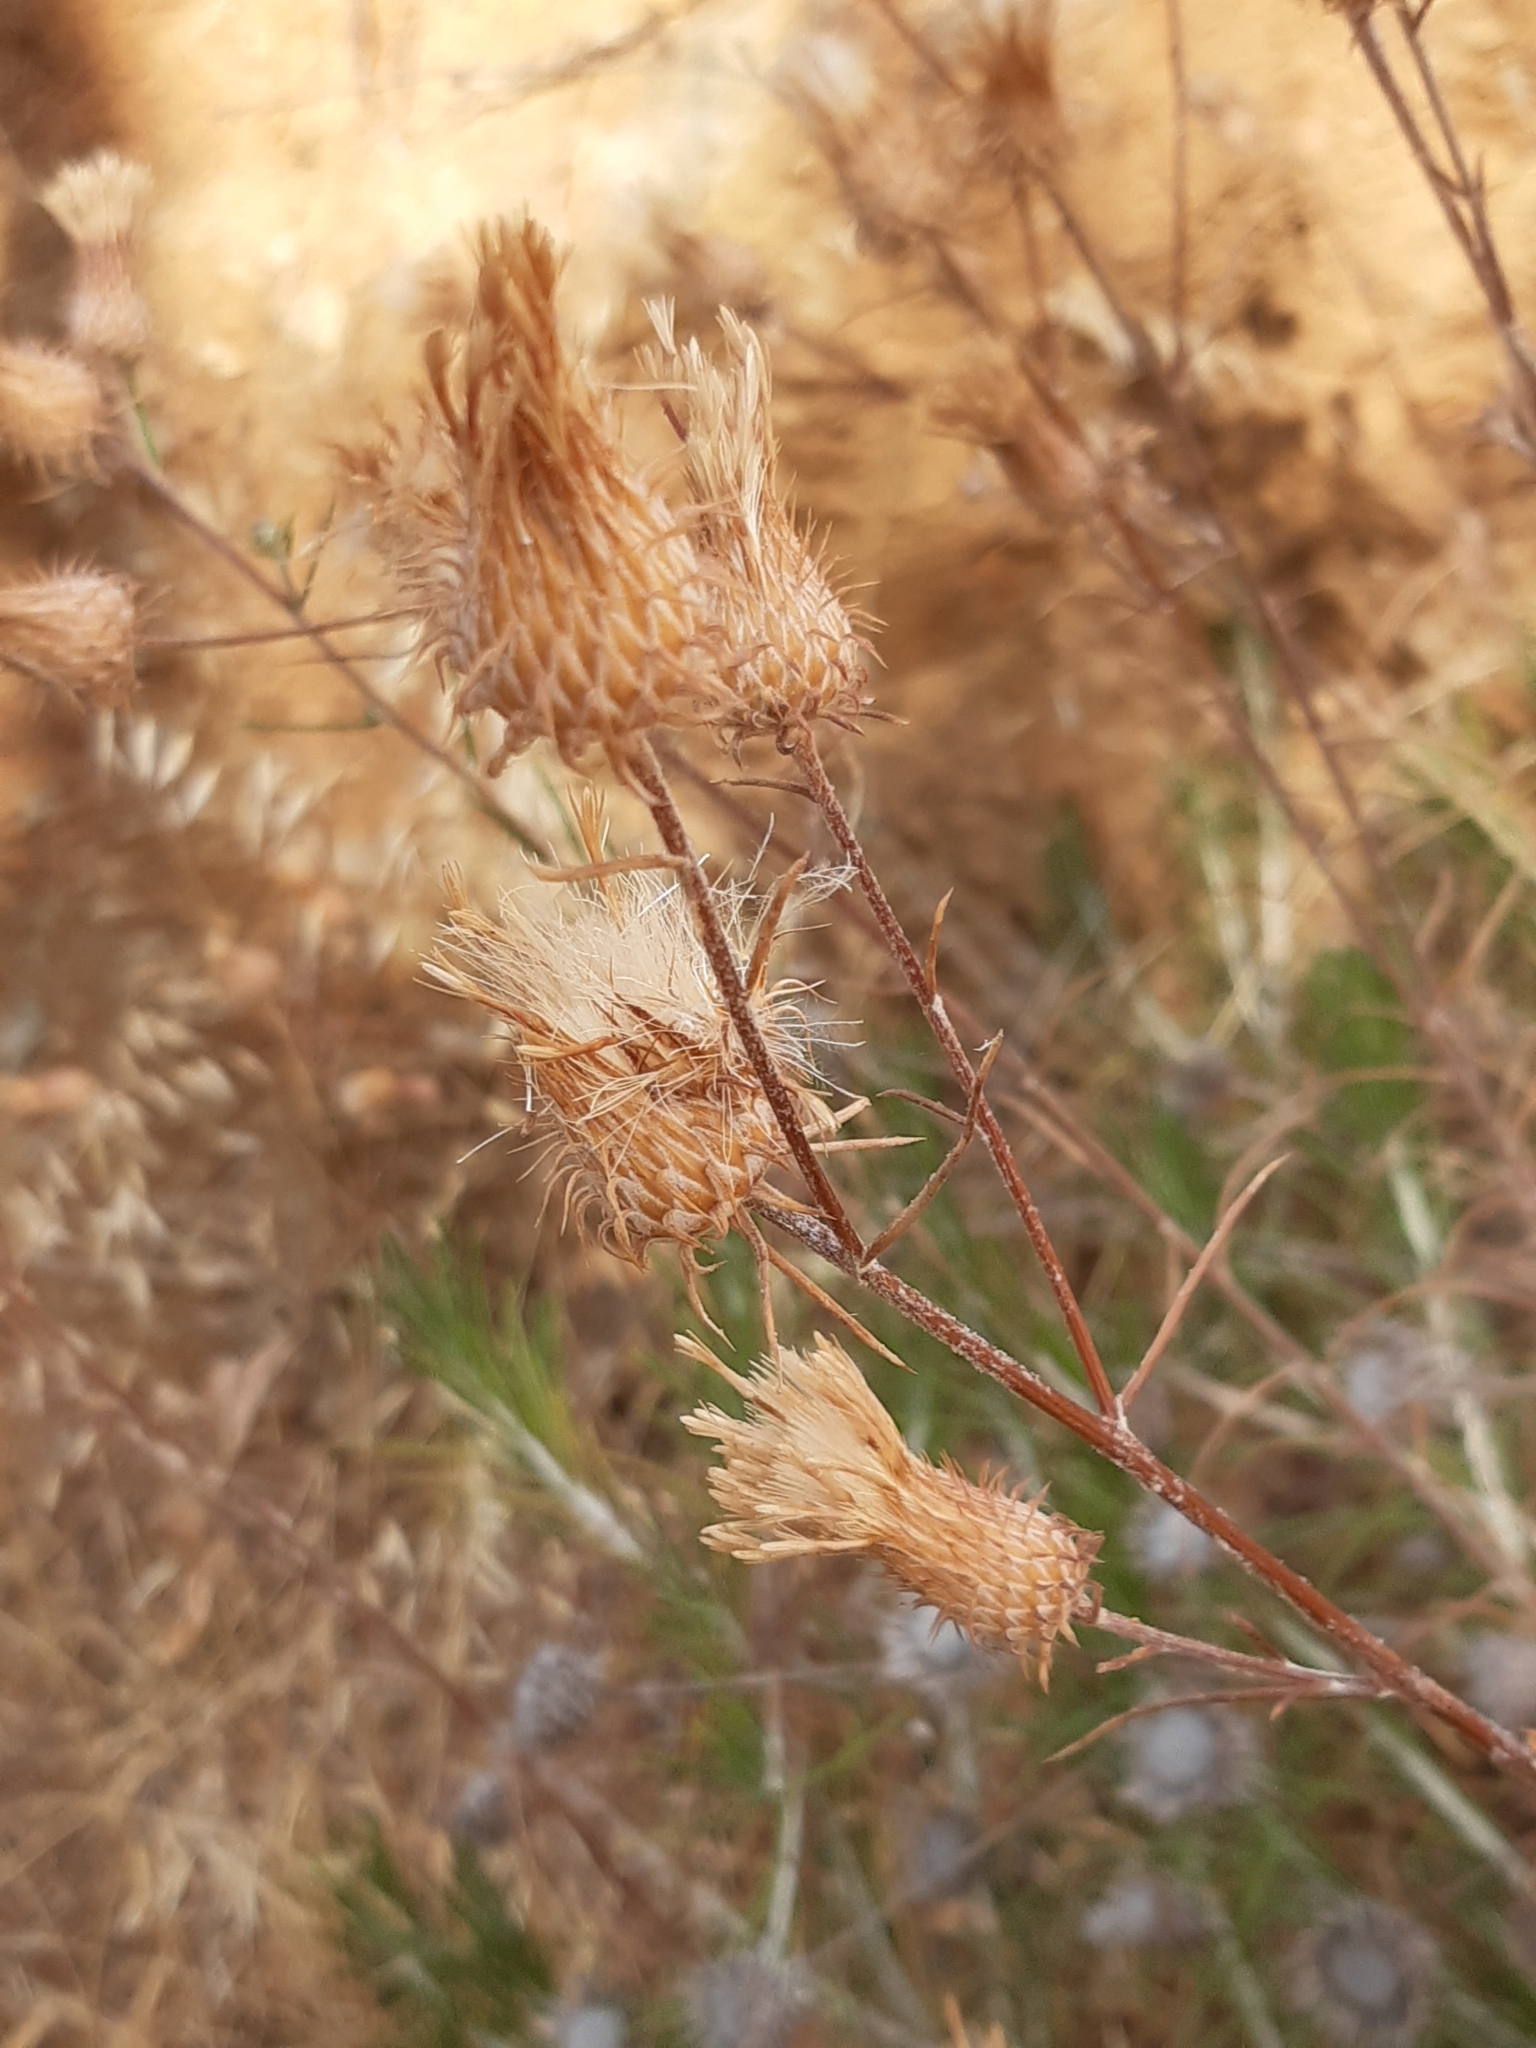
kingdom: Plantae
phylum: Tracheophyta
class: Magnoliopsida
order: Asterales
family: Asteraceae
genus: Ptilostemon
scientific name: Ptilostemon chamaepeuce
